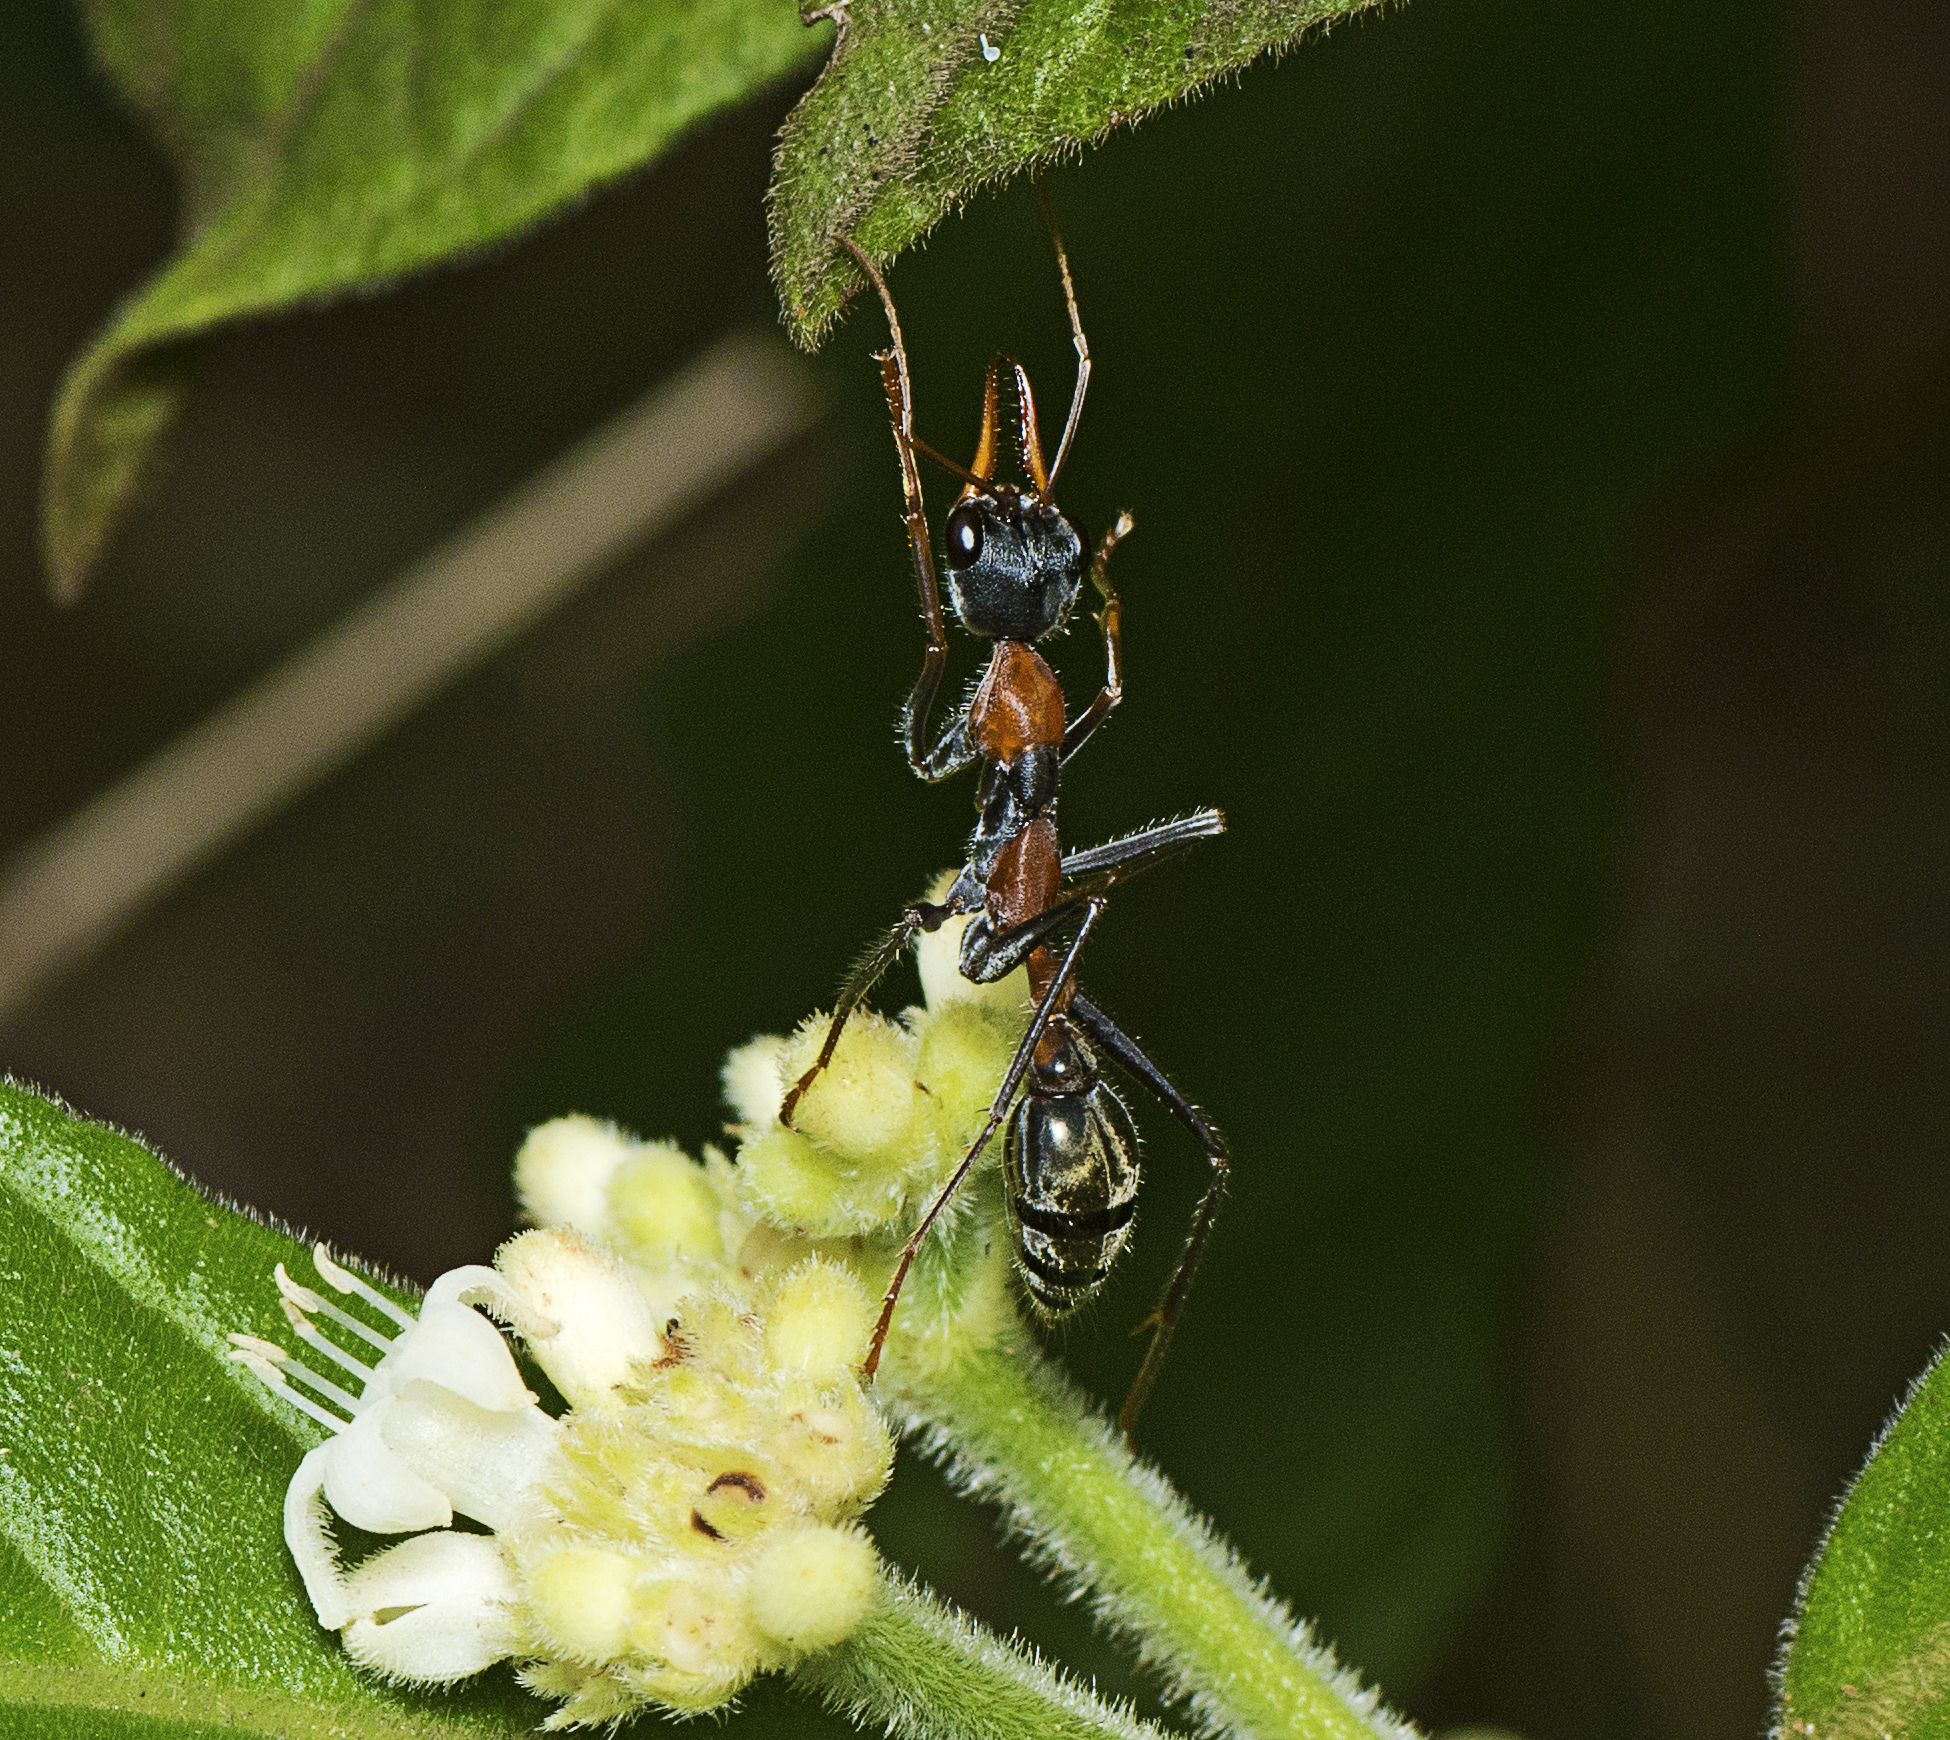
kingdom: Animalia
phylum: Arthropoda
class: Insecta
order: Hymenoptera
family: Formicidae
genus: Myrmecia
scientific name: Myrmecia nigrocincta
